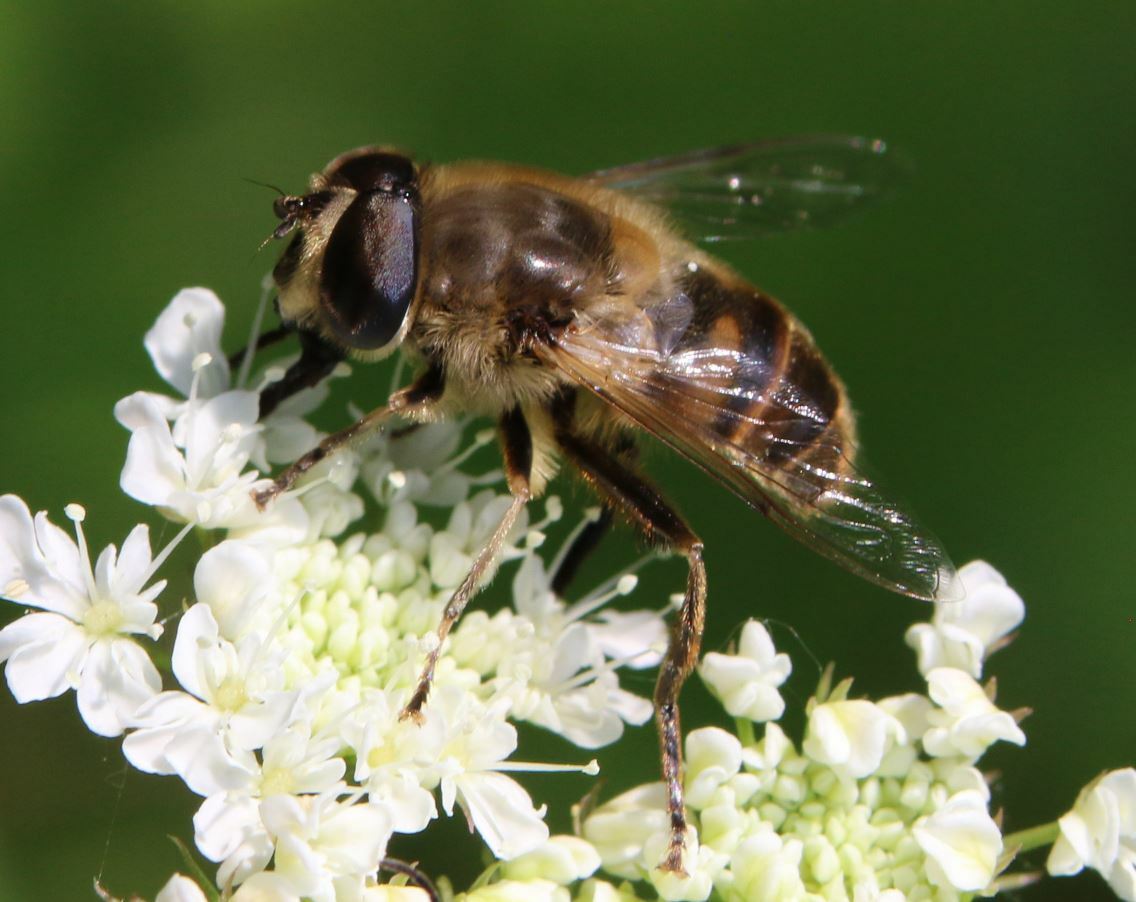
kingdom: Animalia
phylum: Arthropoda
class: Insecta
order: Diptera
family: Syrphidae
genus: Eristalis
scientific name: Eristalis tenax
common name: Drone fly
